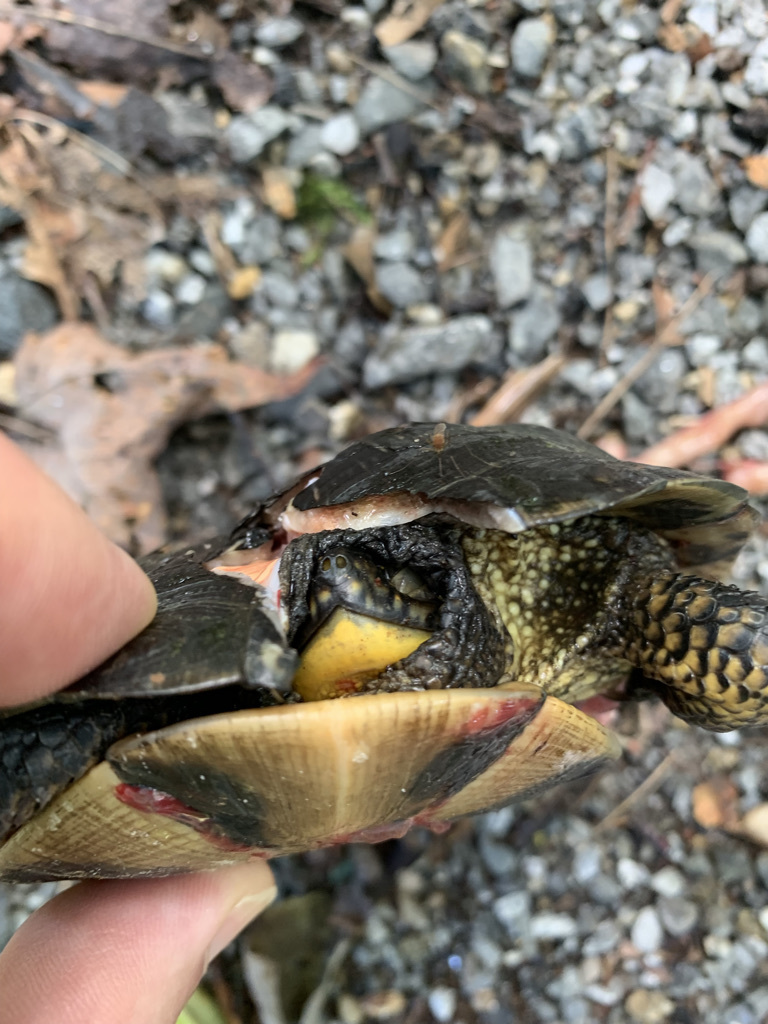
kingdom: Animalia
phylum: Chordata
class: Testudines
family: Emydidae
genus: Emys
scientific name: Emys blandingii
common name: Blanding's turtle
